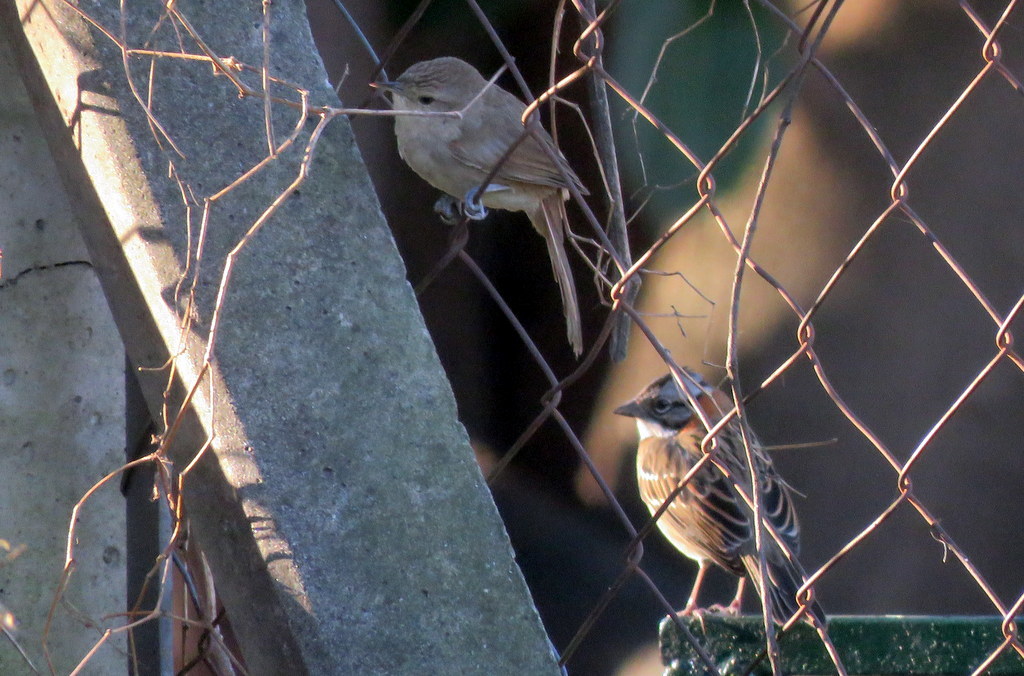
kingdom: Animalia
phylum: Chordata
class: Aves
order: Passeriformes
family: Furnariidae
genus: Phacellodomus
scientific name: Phacellodomus sibilatrix
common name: Little thornbird
